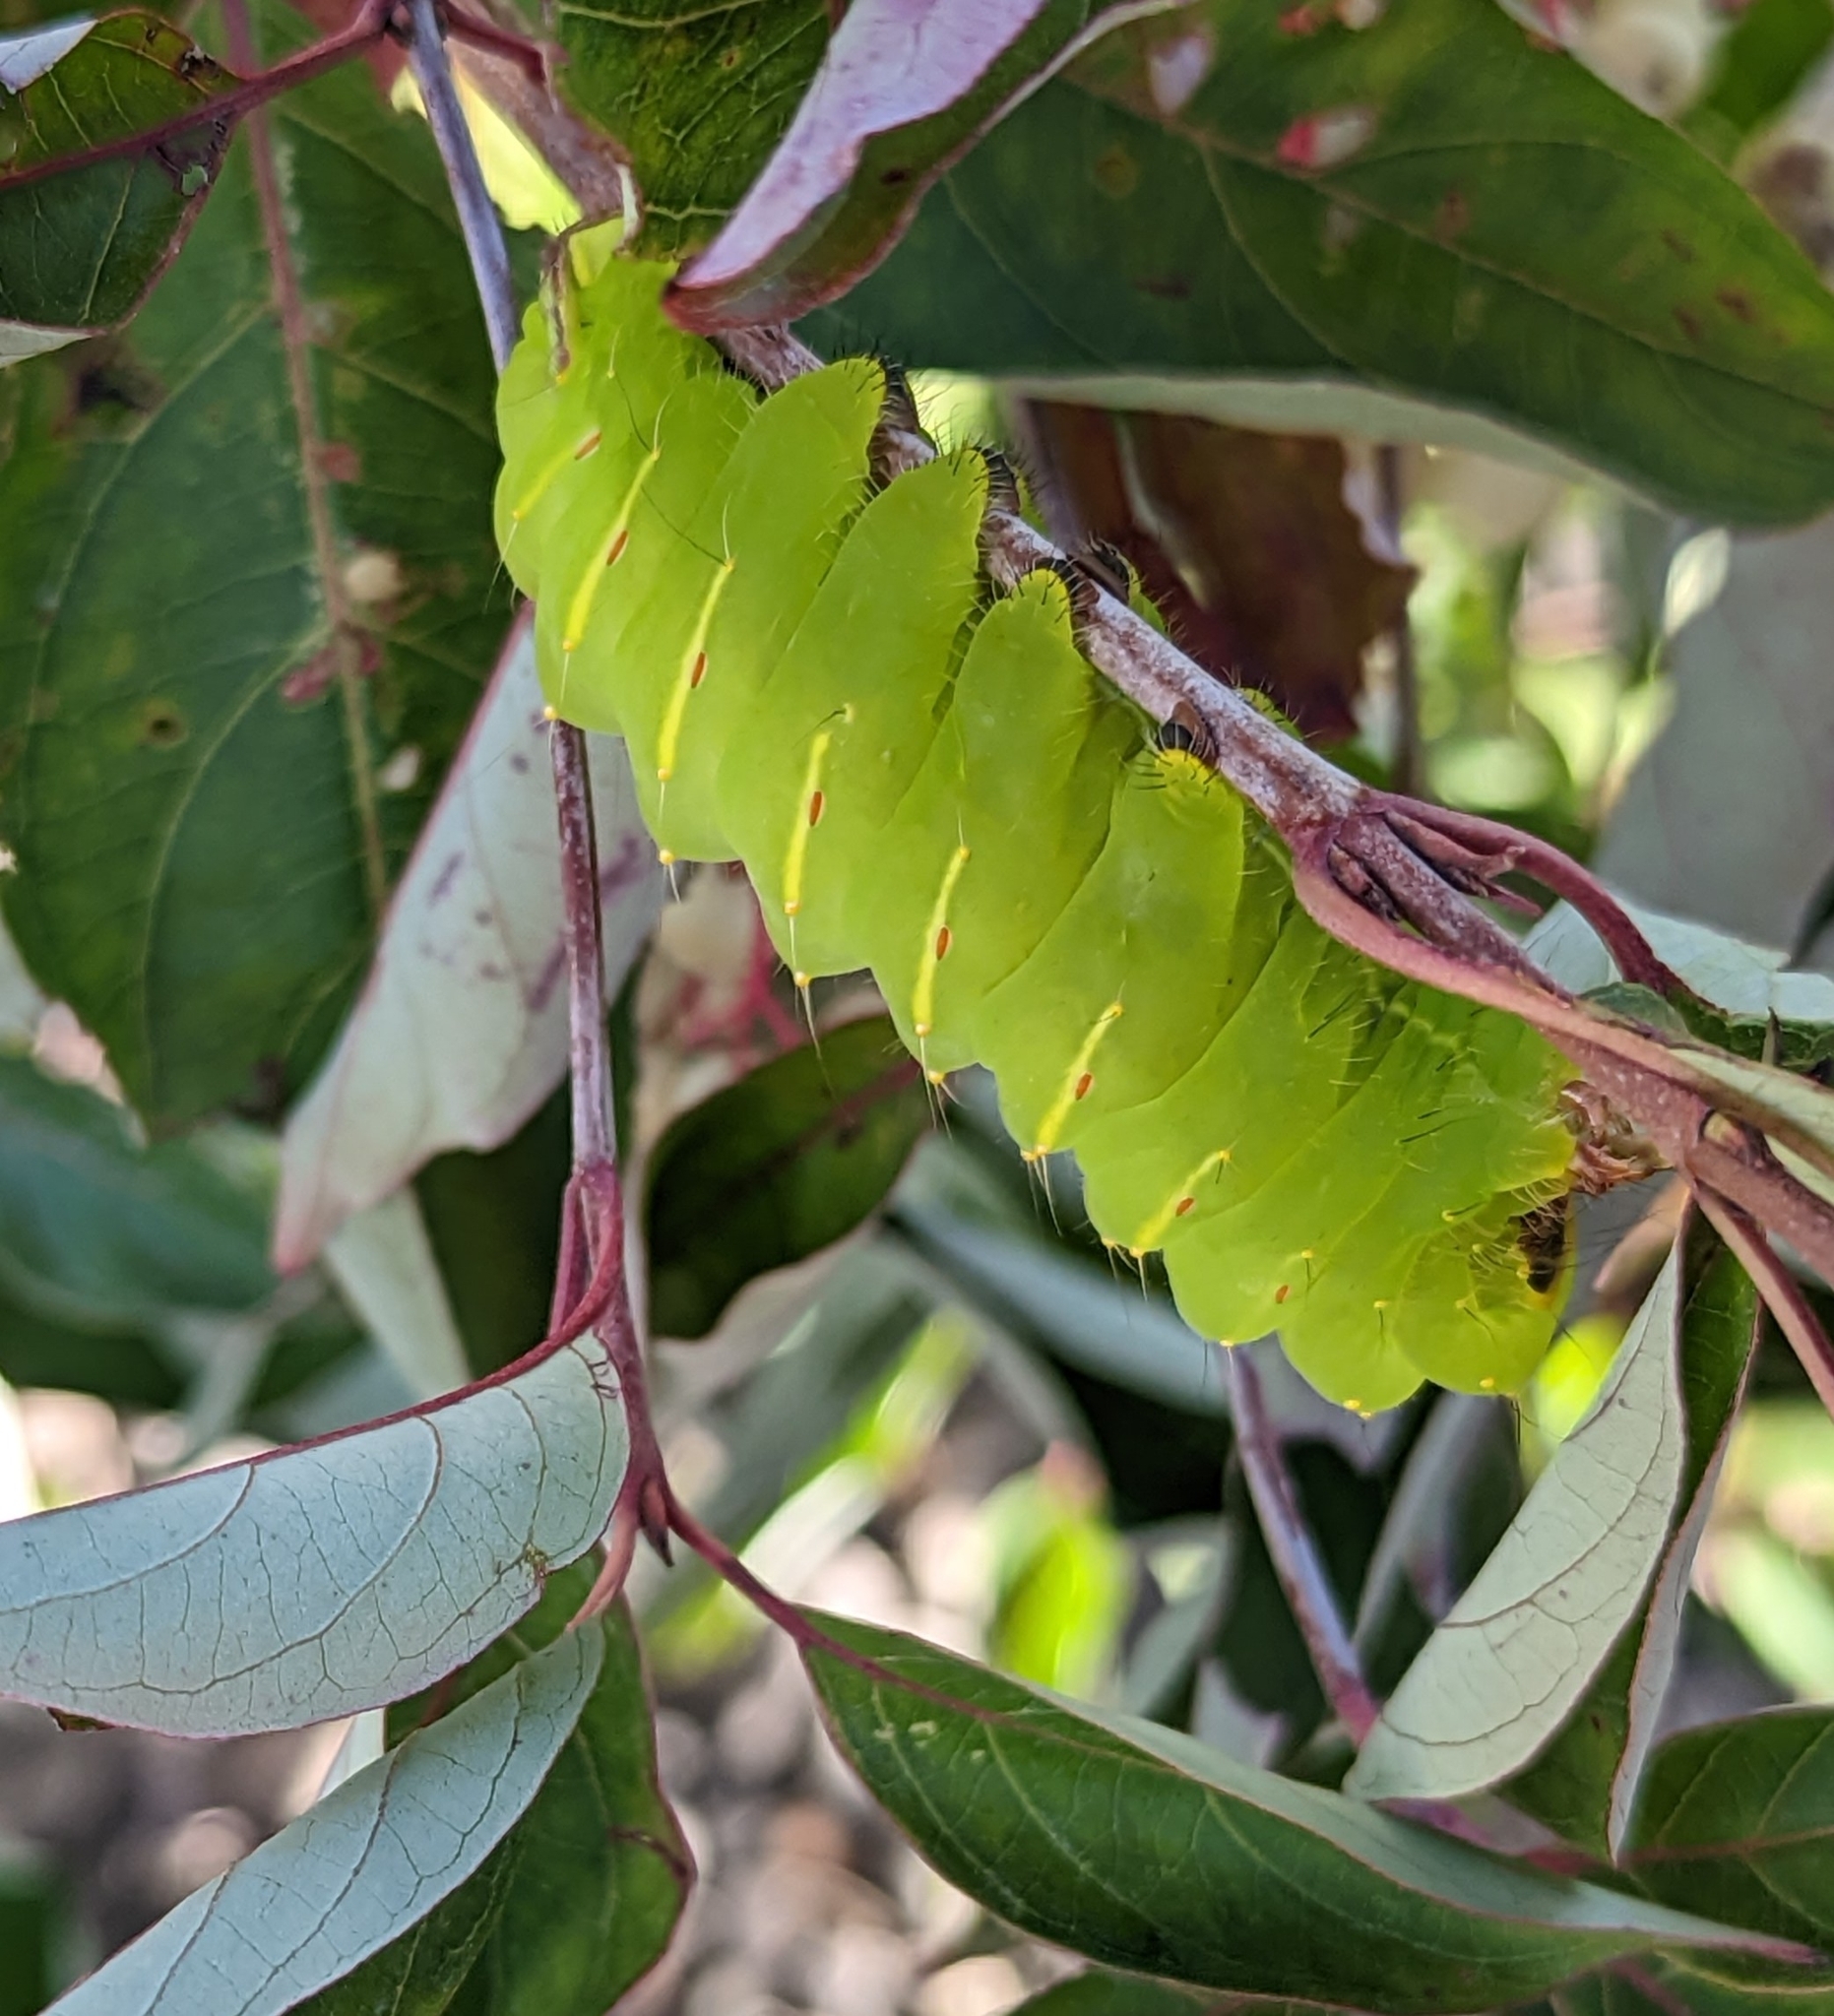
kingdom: Animalia
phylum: Arthropoda
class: Insecta
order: Lepidoptera
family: Saturniidae
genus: Antheraea
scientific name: Antheraea polyphemus
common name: Polyphemus moth
